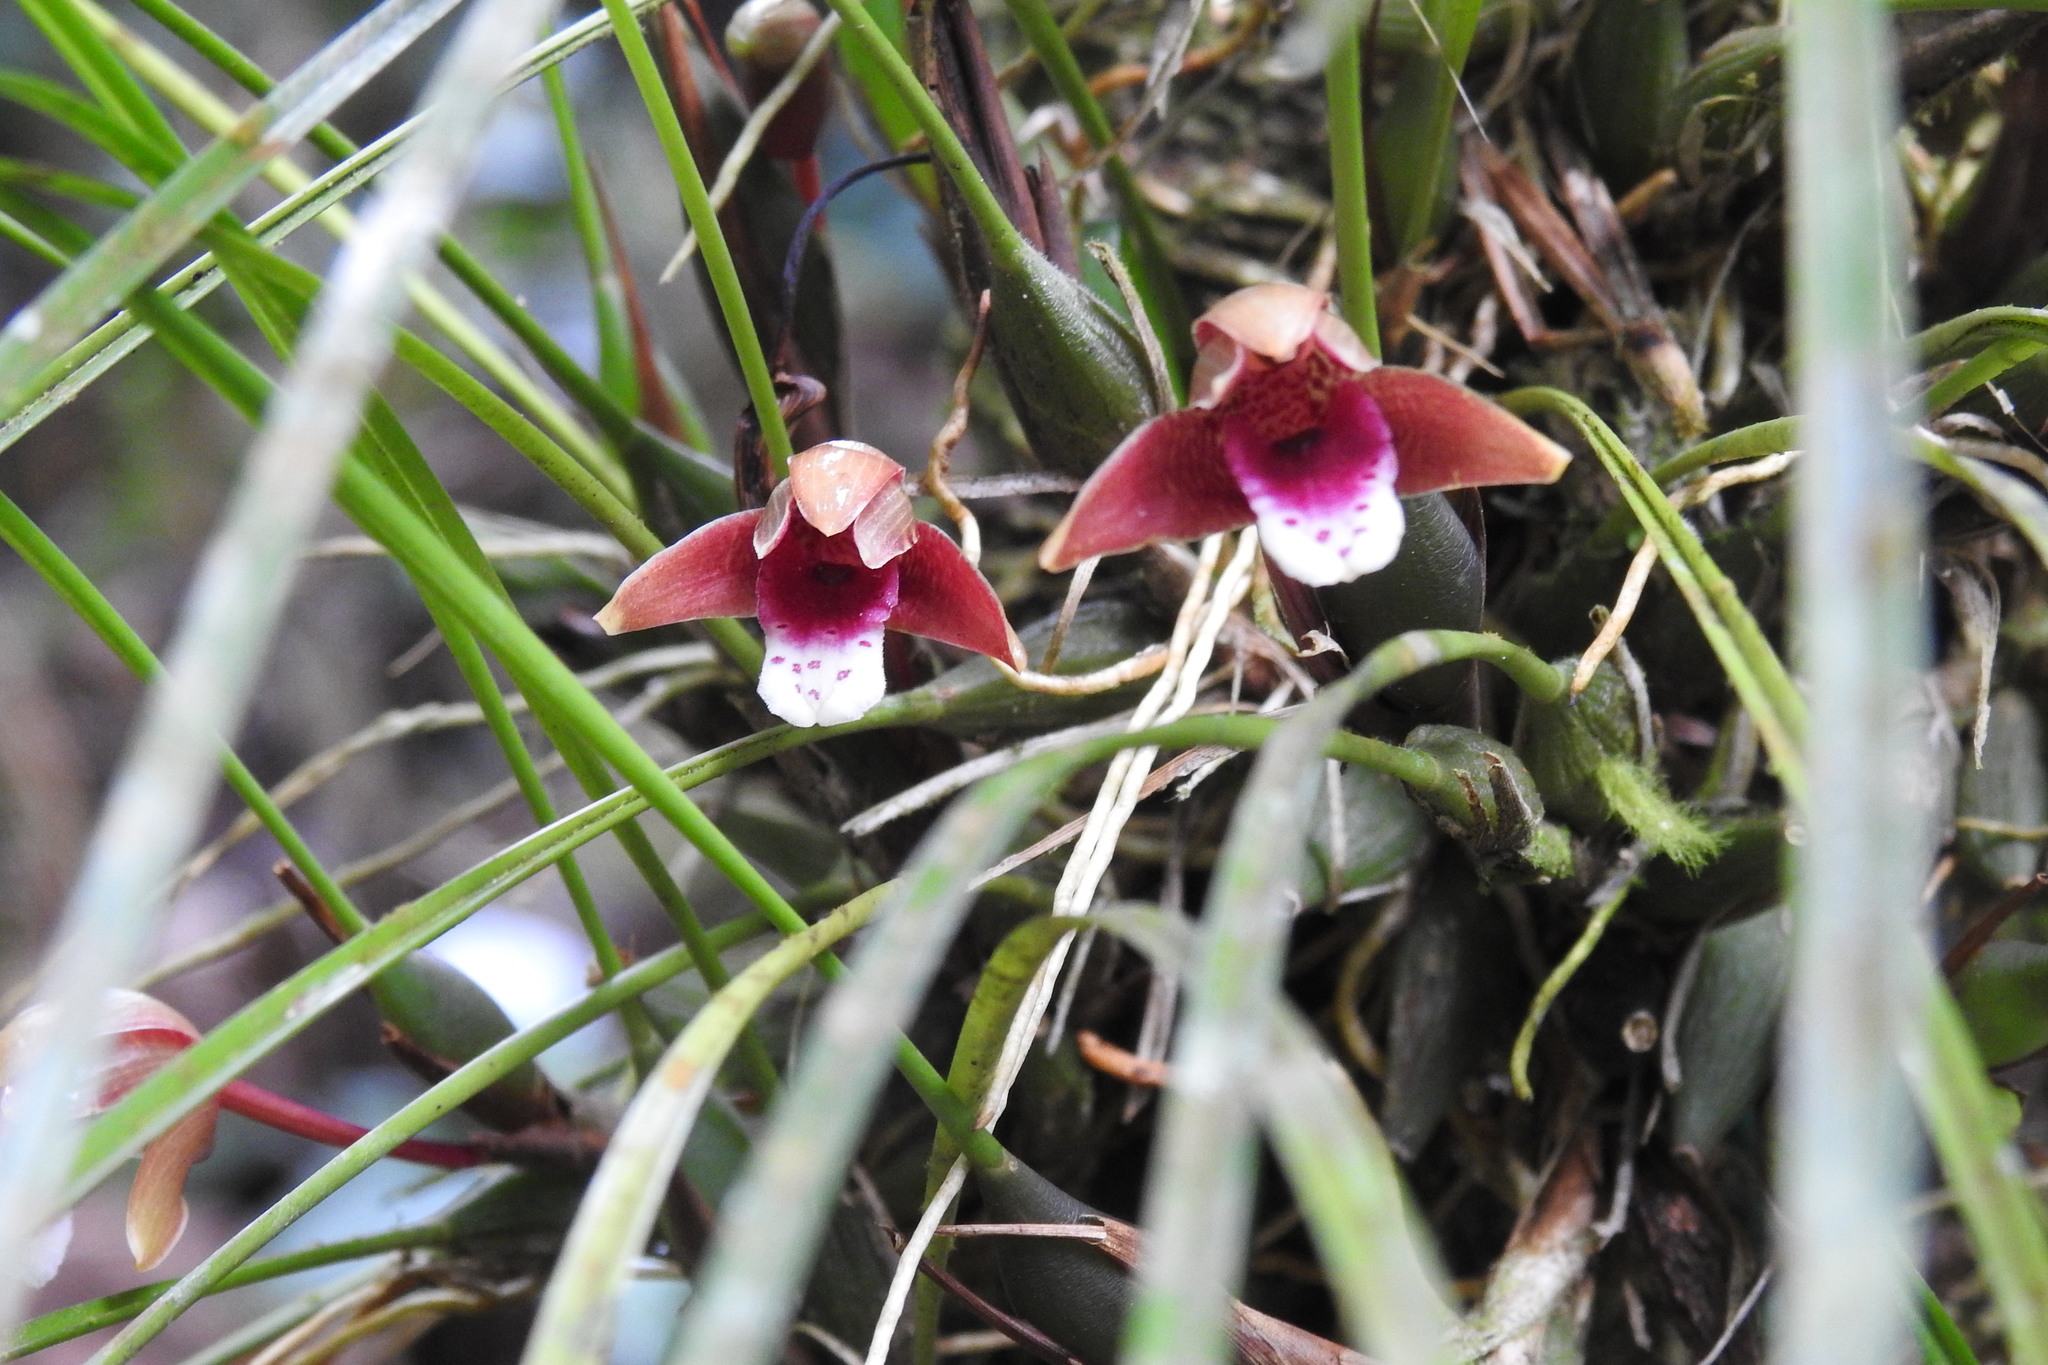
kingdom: Plantae
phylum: Tracheophyta
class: Liliopsida
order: Asparagales
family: Orchidaceae
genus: Maxillaria
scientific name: Maxillaria sanguinea
